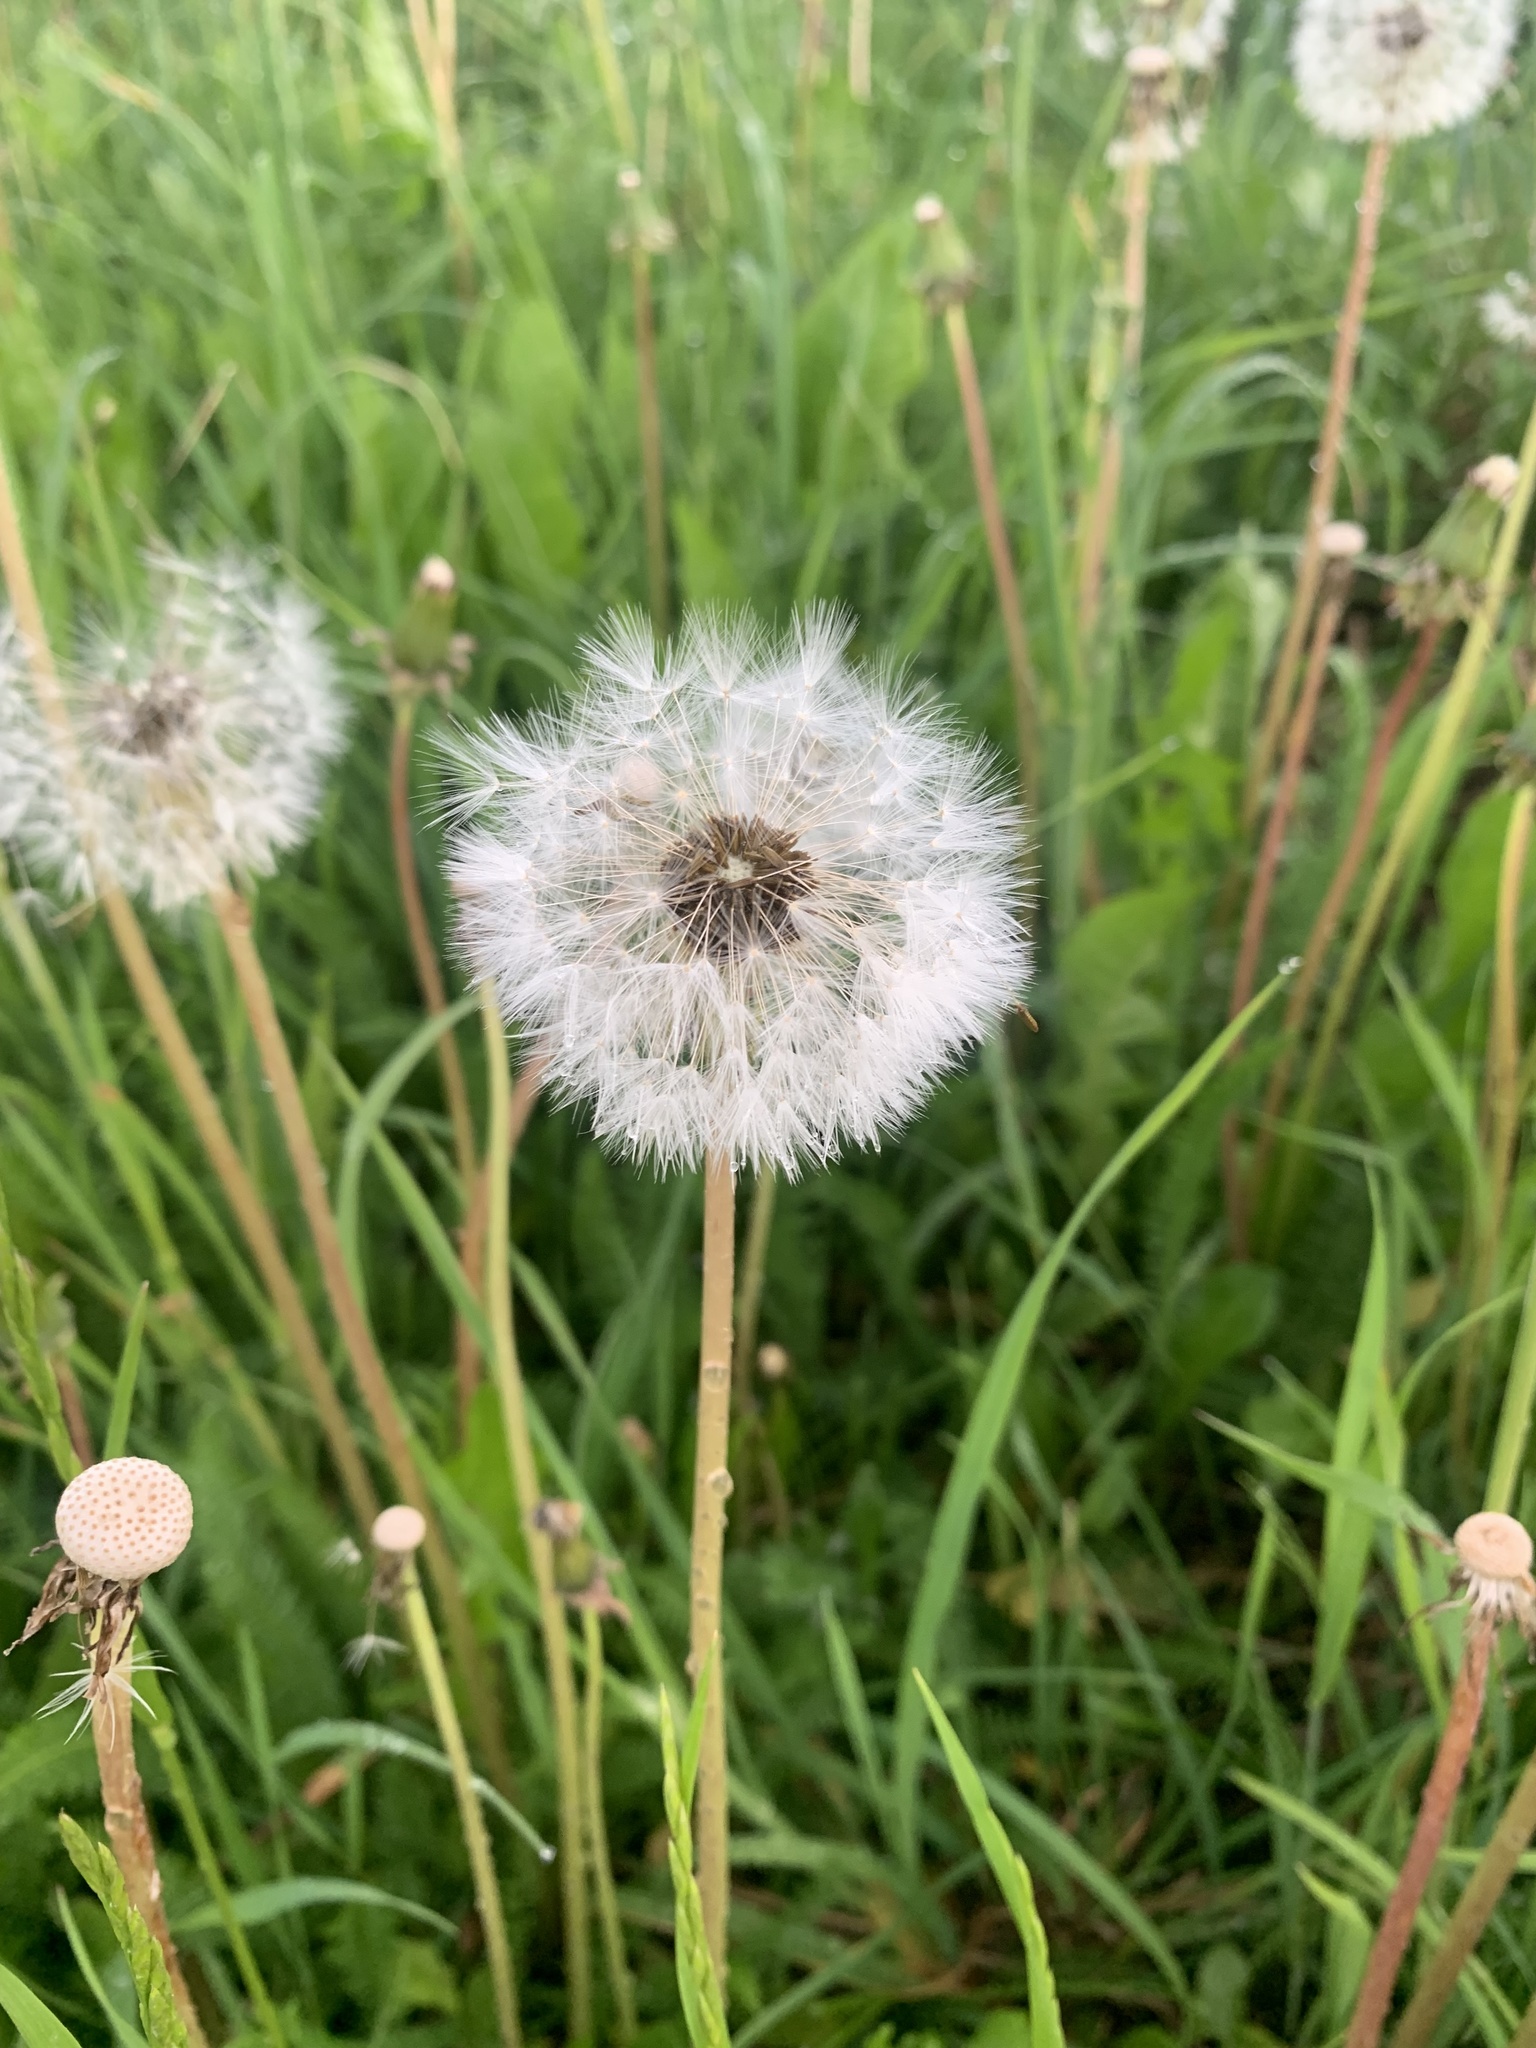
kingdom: Plantae
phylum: Tracheophyta
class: Magnoliopsida
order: Asterales
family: Asteraceae
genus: Taraxacum
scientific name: Taraxacum officinale
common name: Common dandelion
